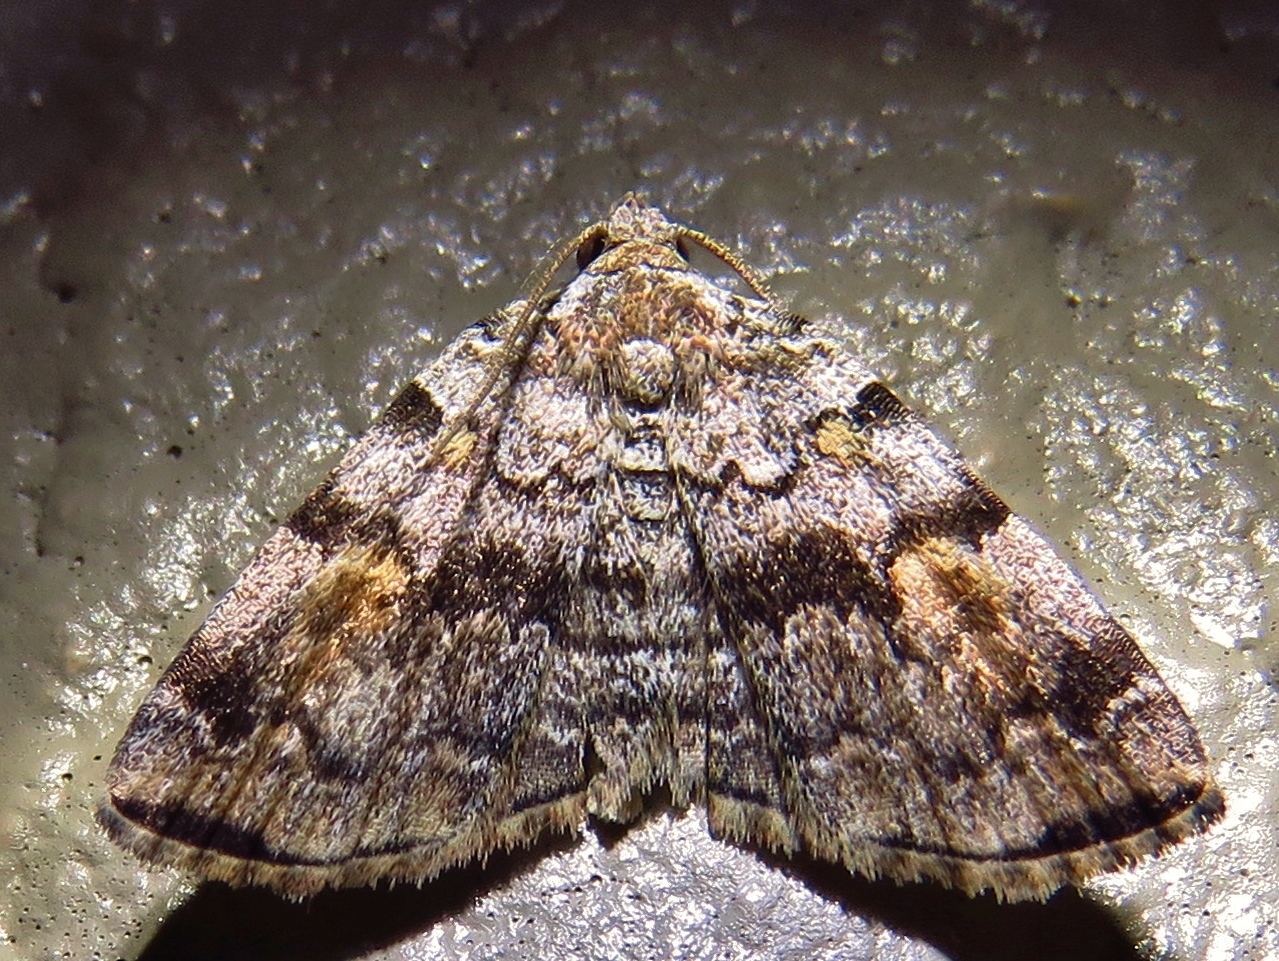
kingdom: Animalia
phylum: Arthropoda
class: Insecta
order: Lepidoptera
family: Erebidae
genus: Idia
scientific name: Idia americalis
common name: American idia moth
